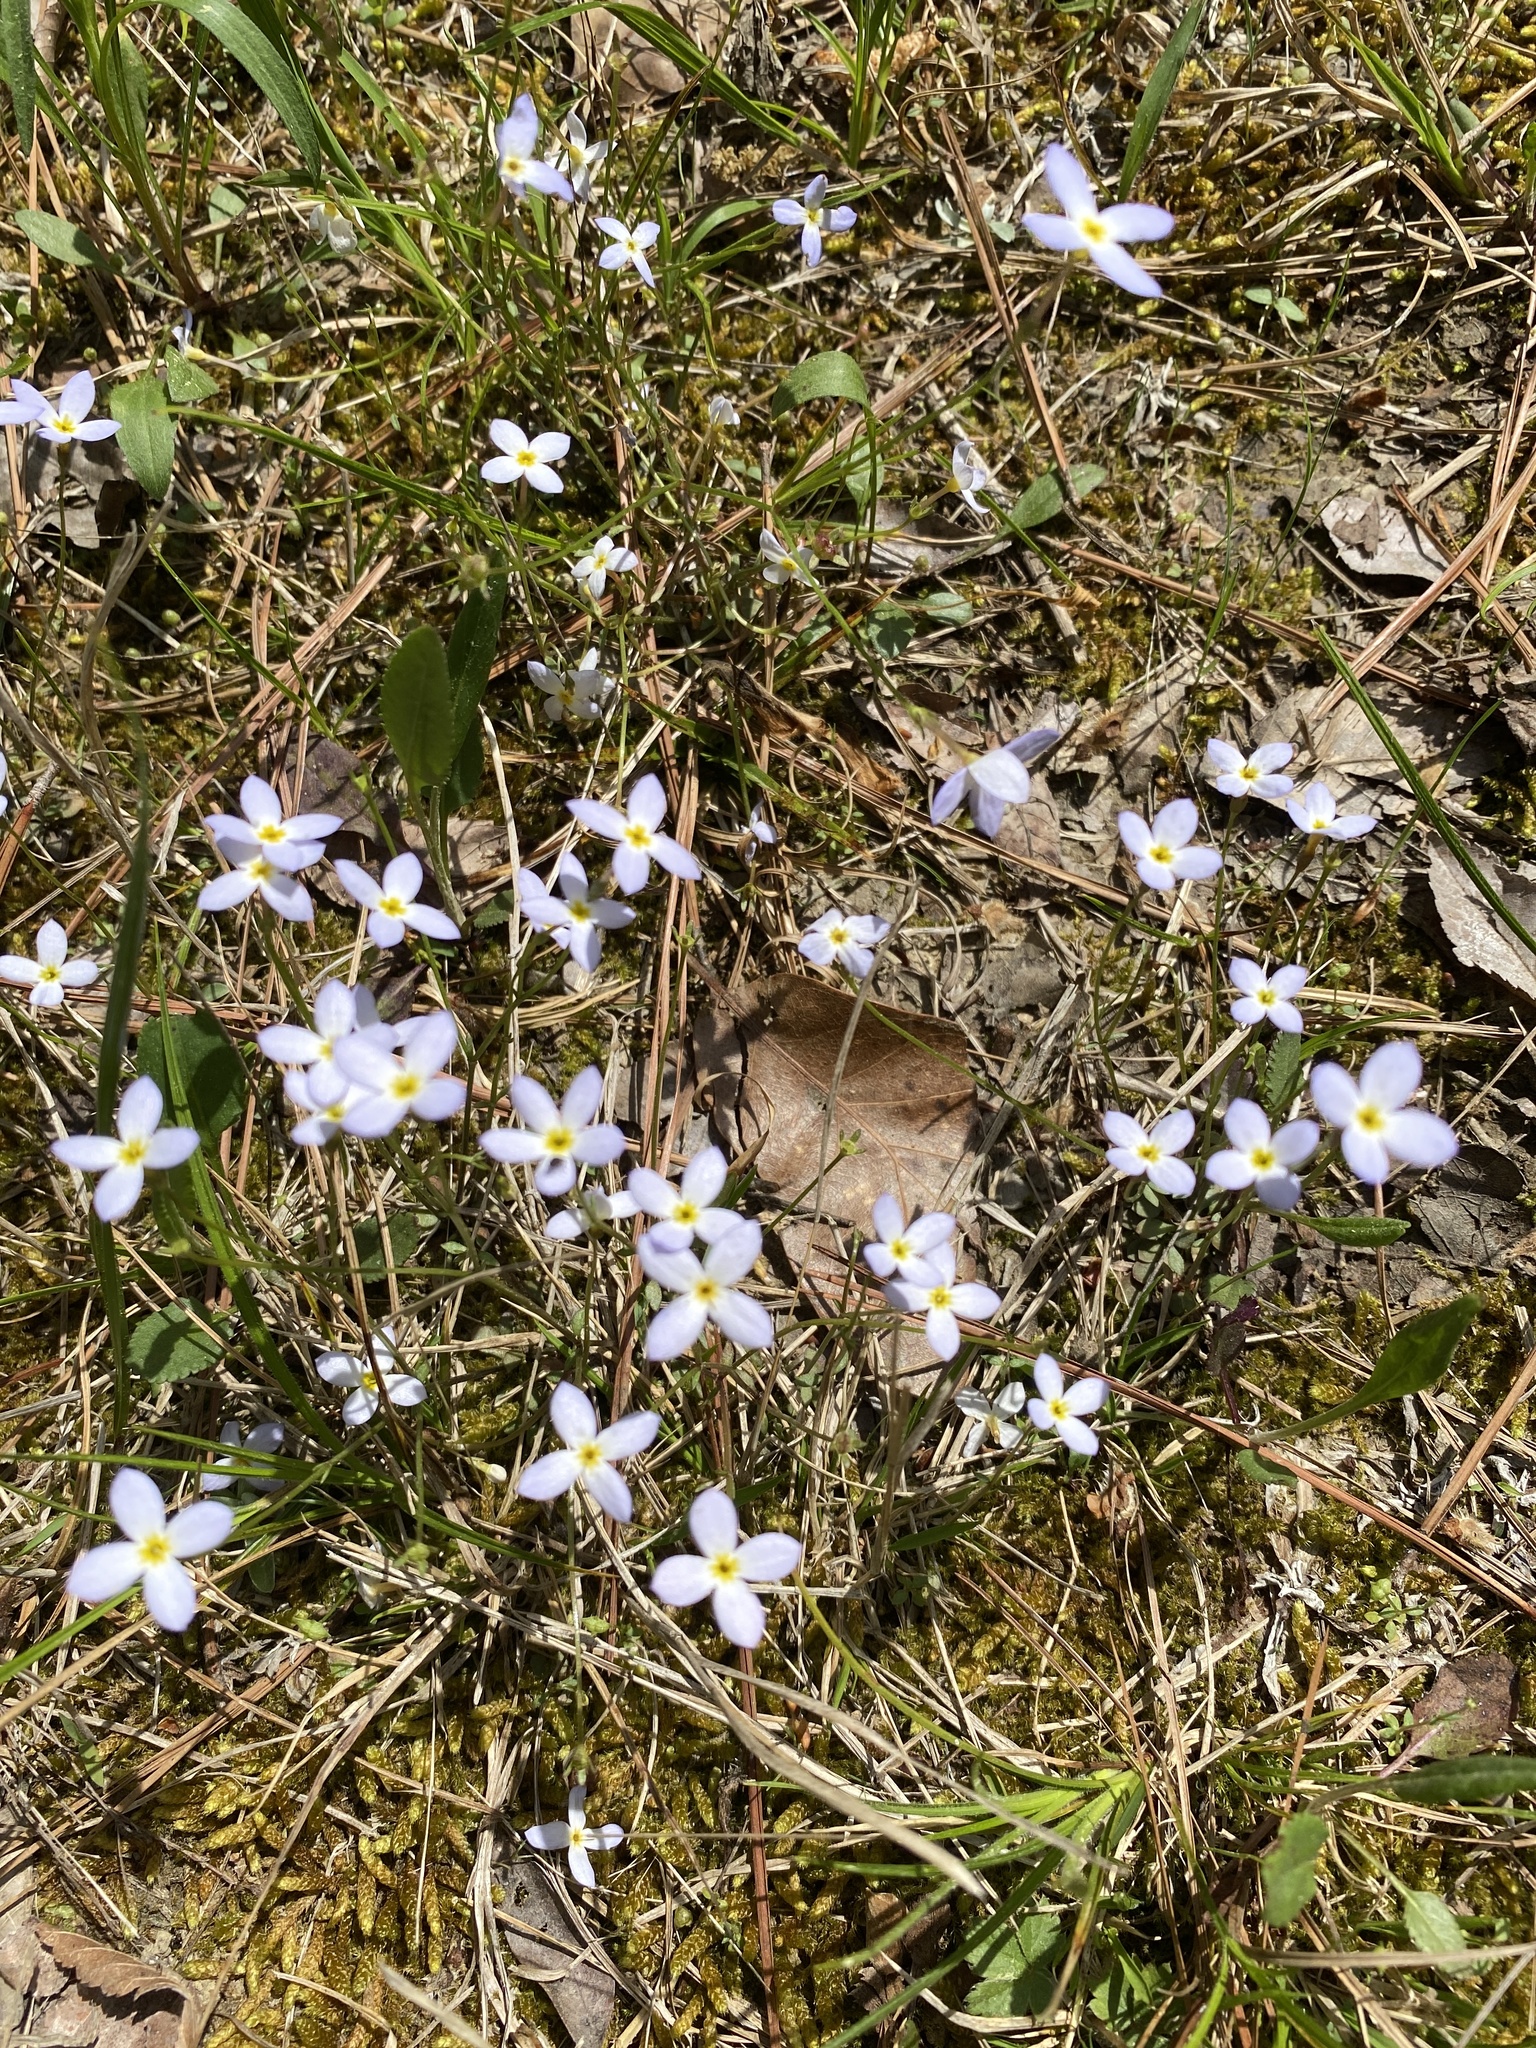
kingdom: Plantae
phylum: Tracheophyta
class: Magnoliopsida
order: Gentianales
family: Rubiaceae
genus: Houstonia
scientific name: Houstonia caerulea
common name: Bluets
